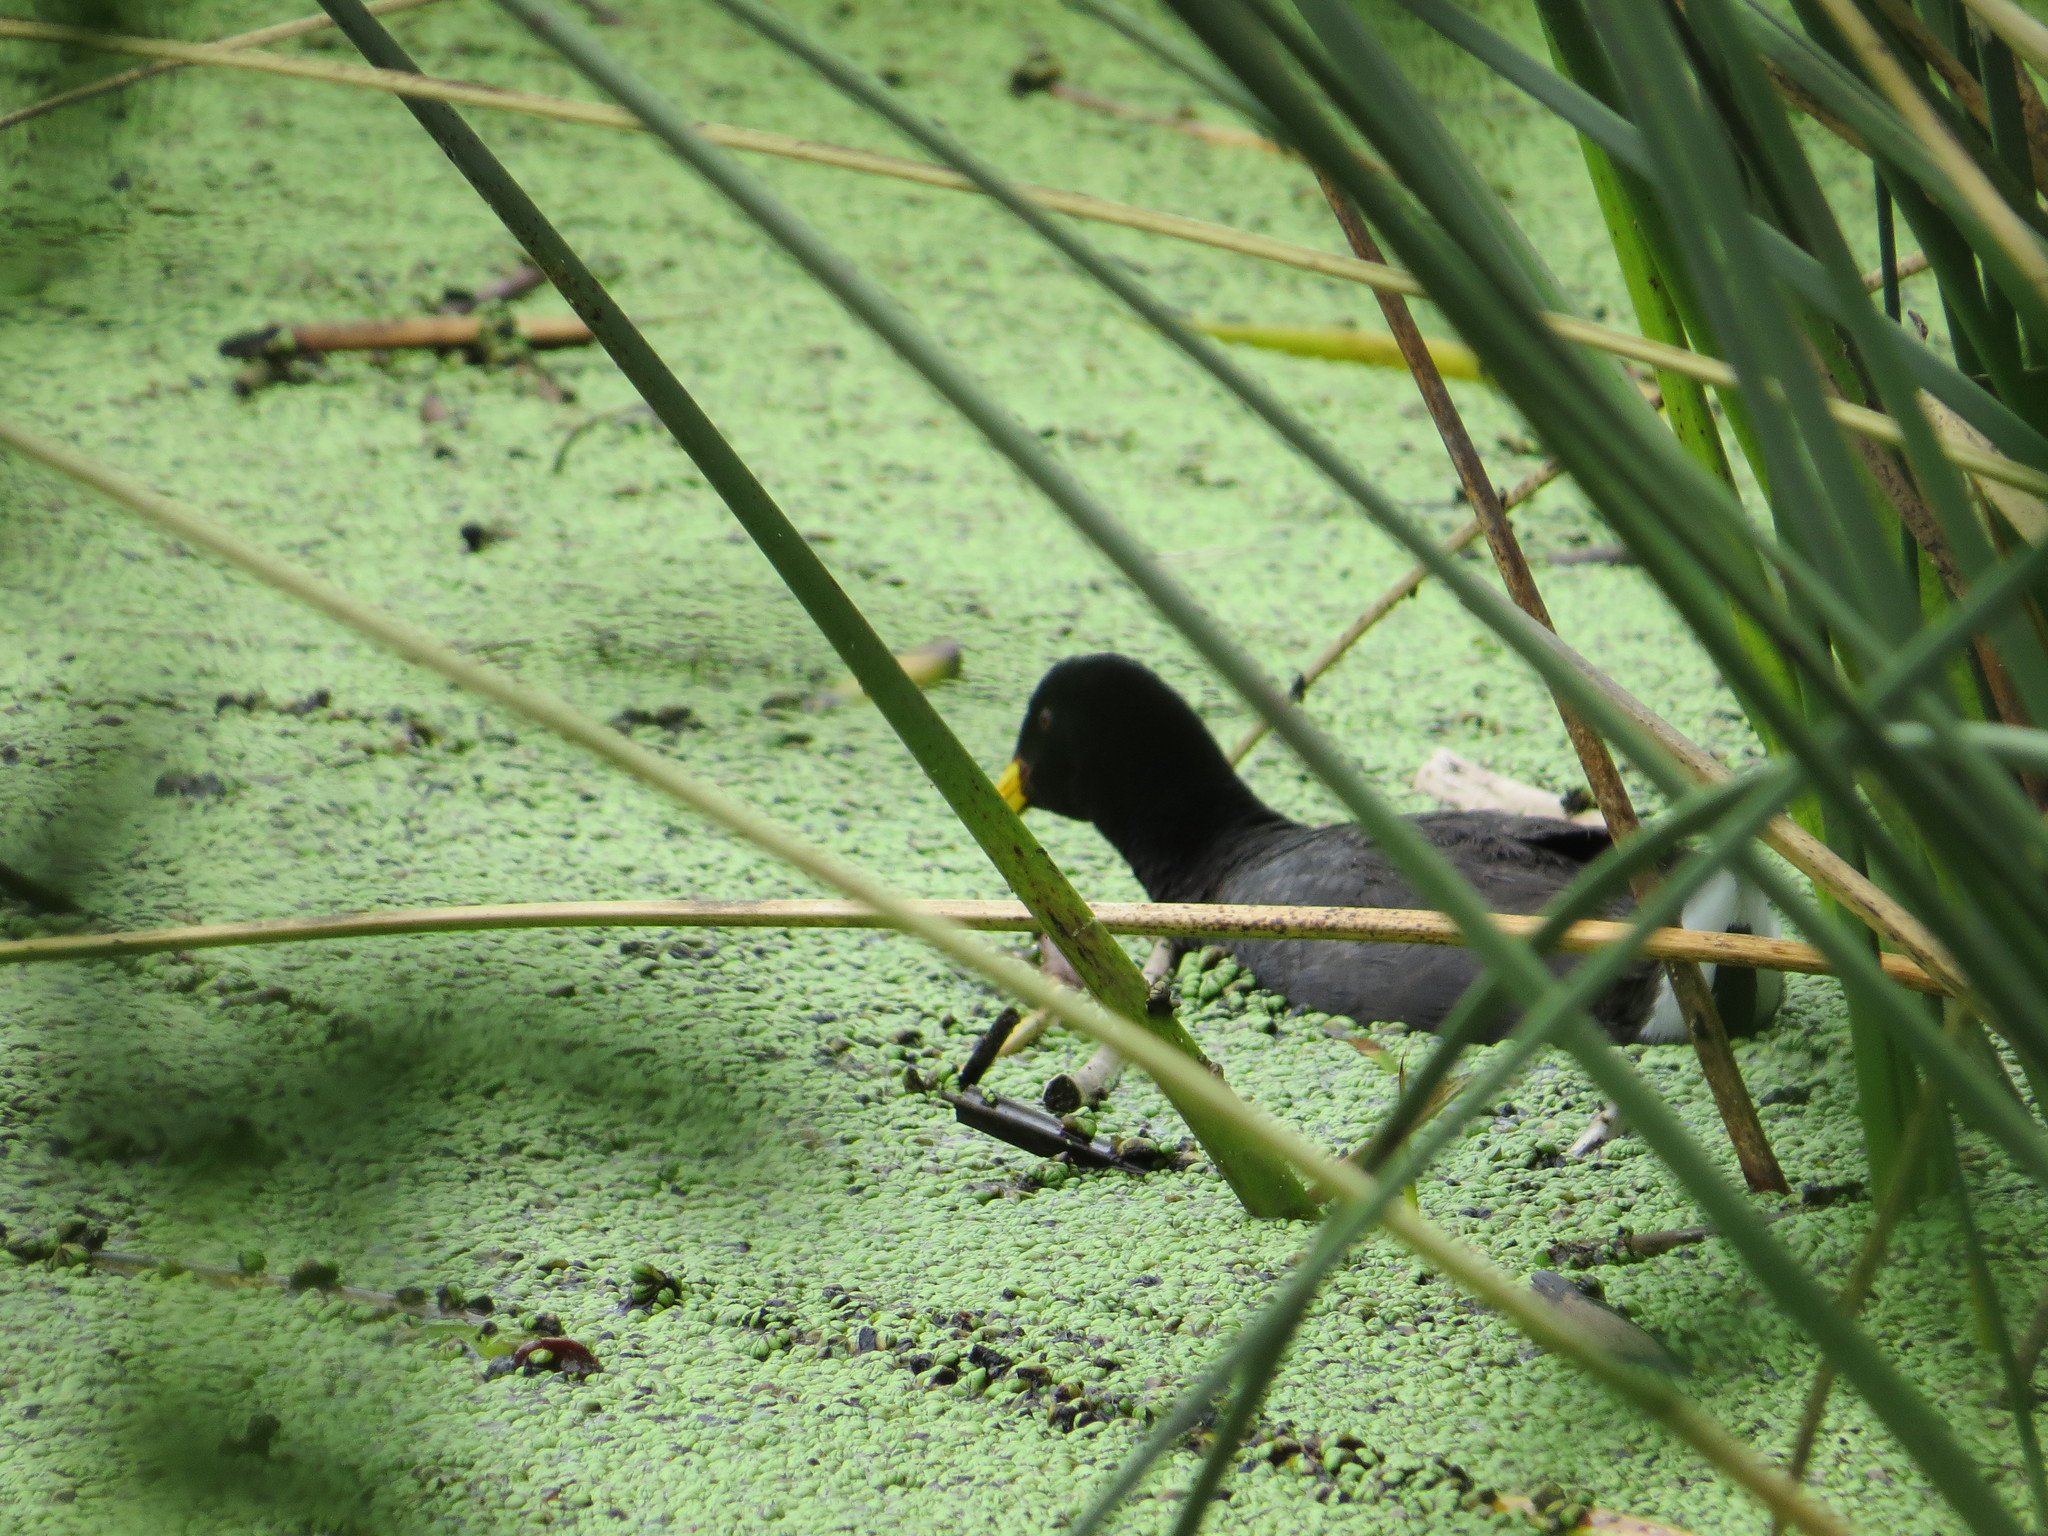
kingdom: Animalia
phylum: Chordata
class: Aves
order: Gruiformes
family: Rallidae
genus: Fulica
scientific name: Fulica rufifrons
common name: Red-fronted coot
